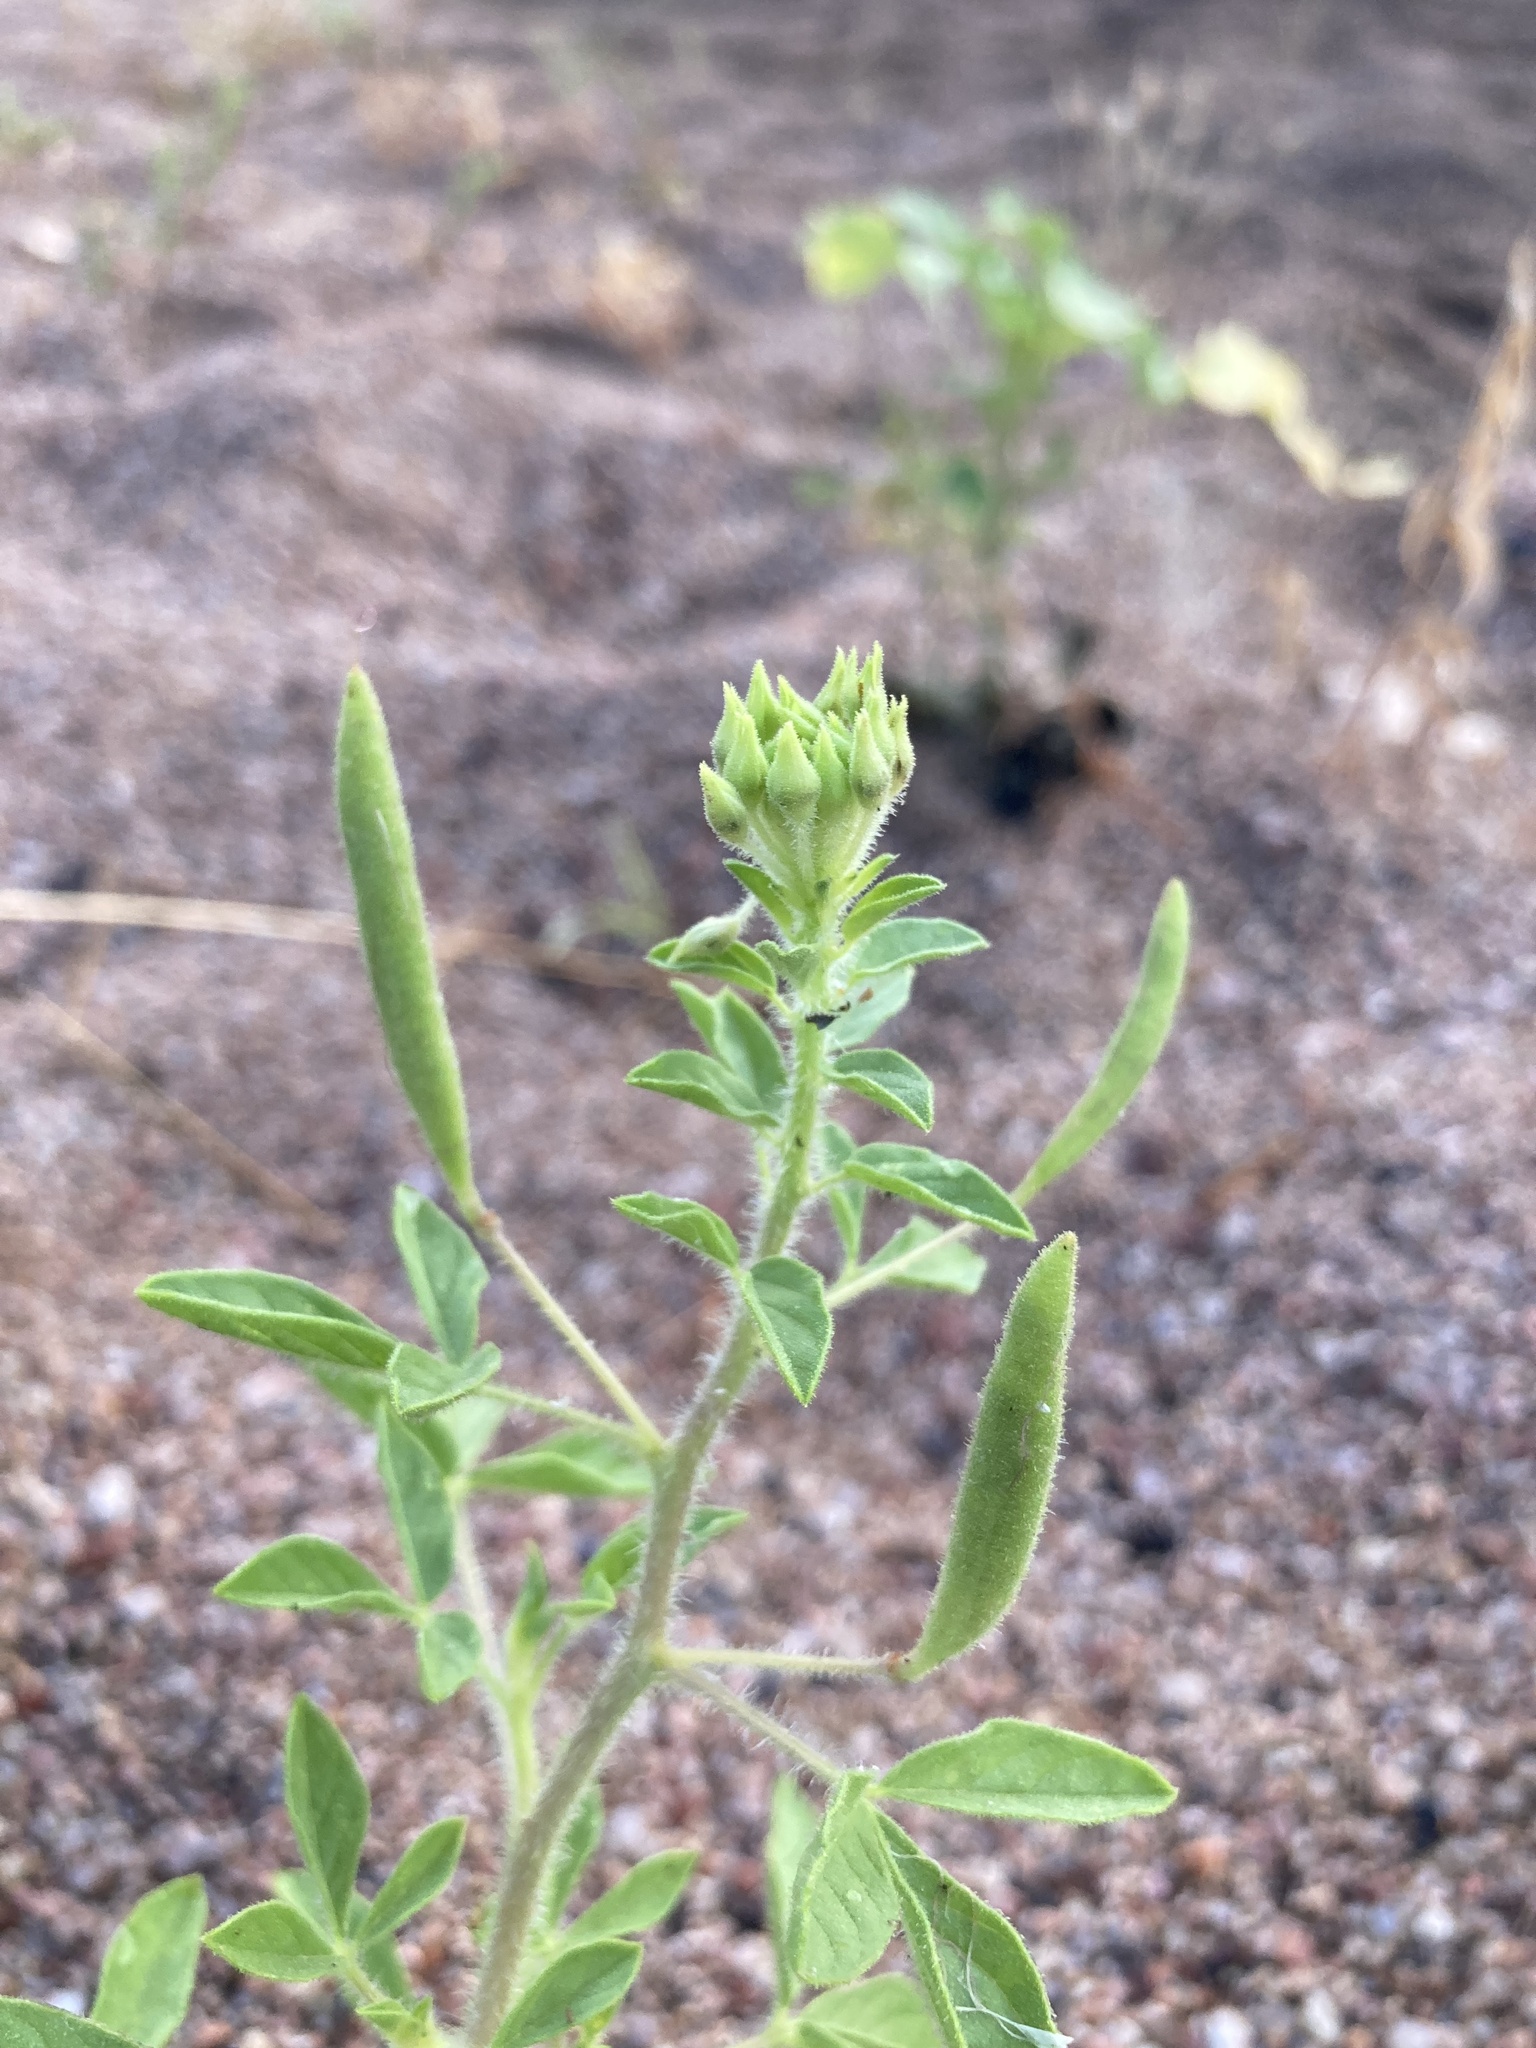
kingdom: Plantae
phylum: Tracheophyta
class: Magnoliopsida
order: Brassicales
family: Cleomaceae
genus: Polanisia
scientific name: Polanisia dodecandra
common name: Clammyweed
